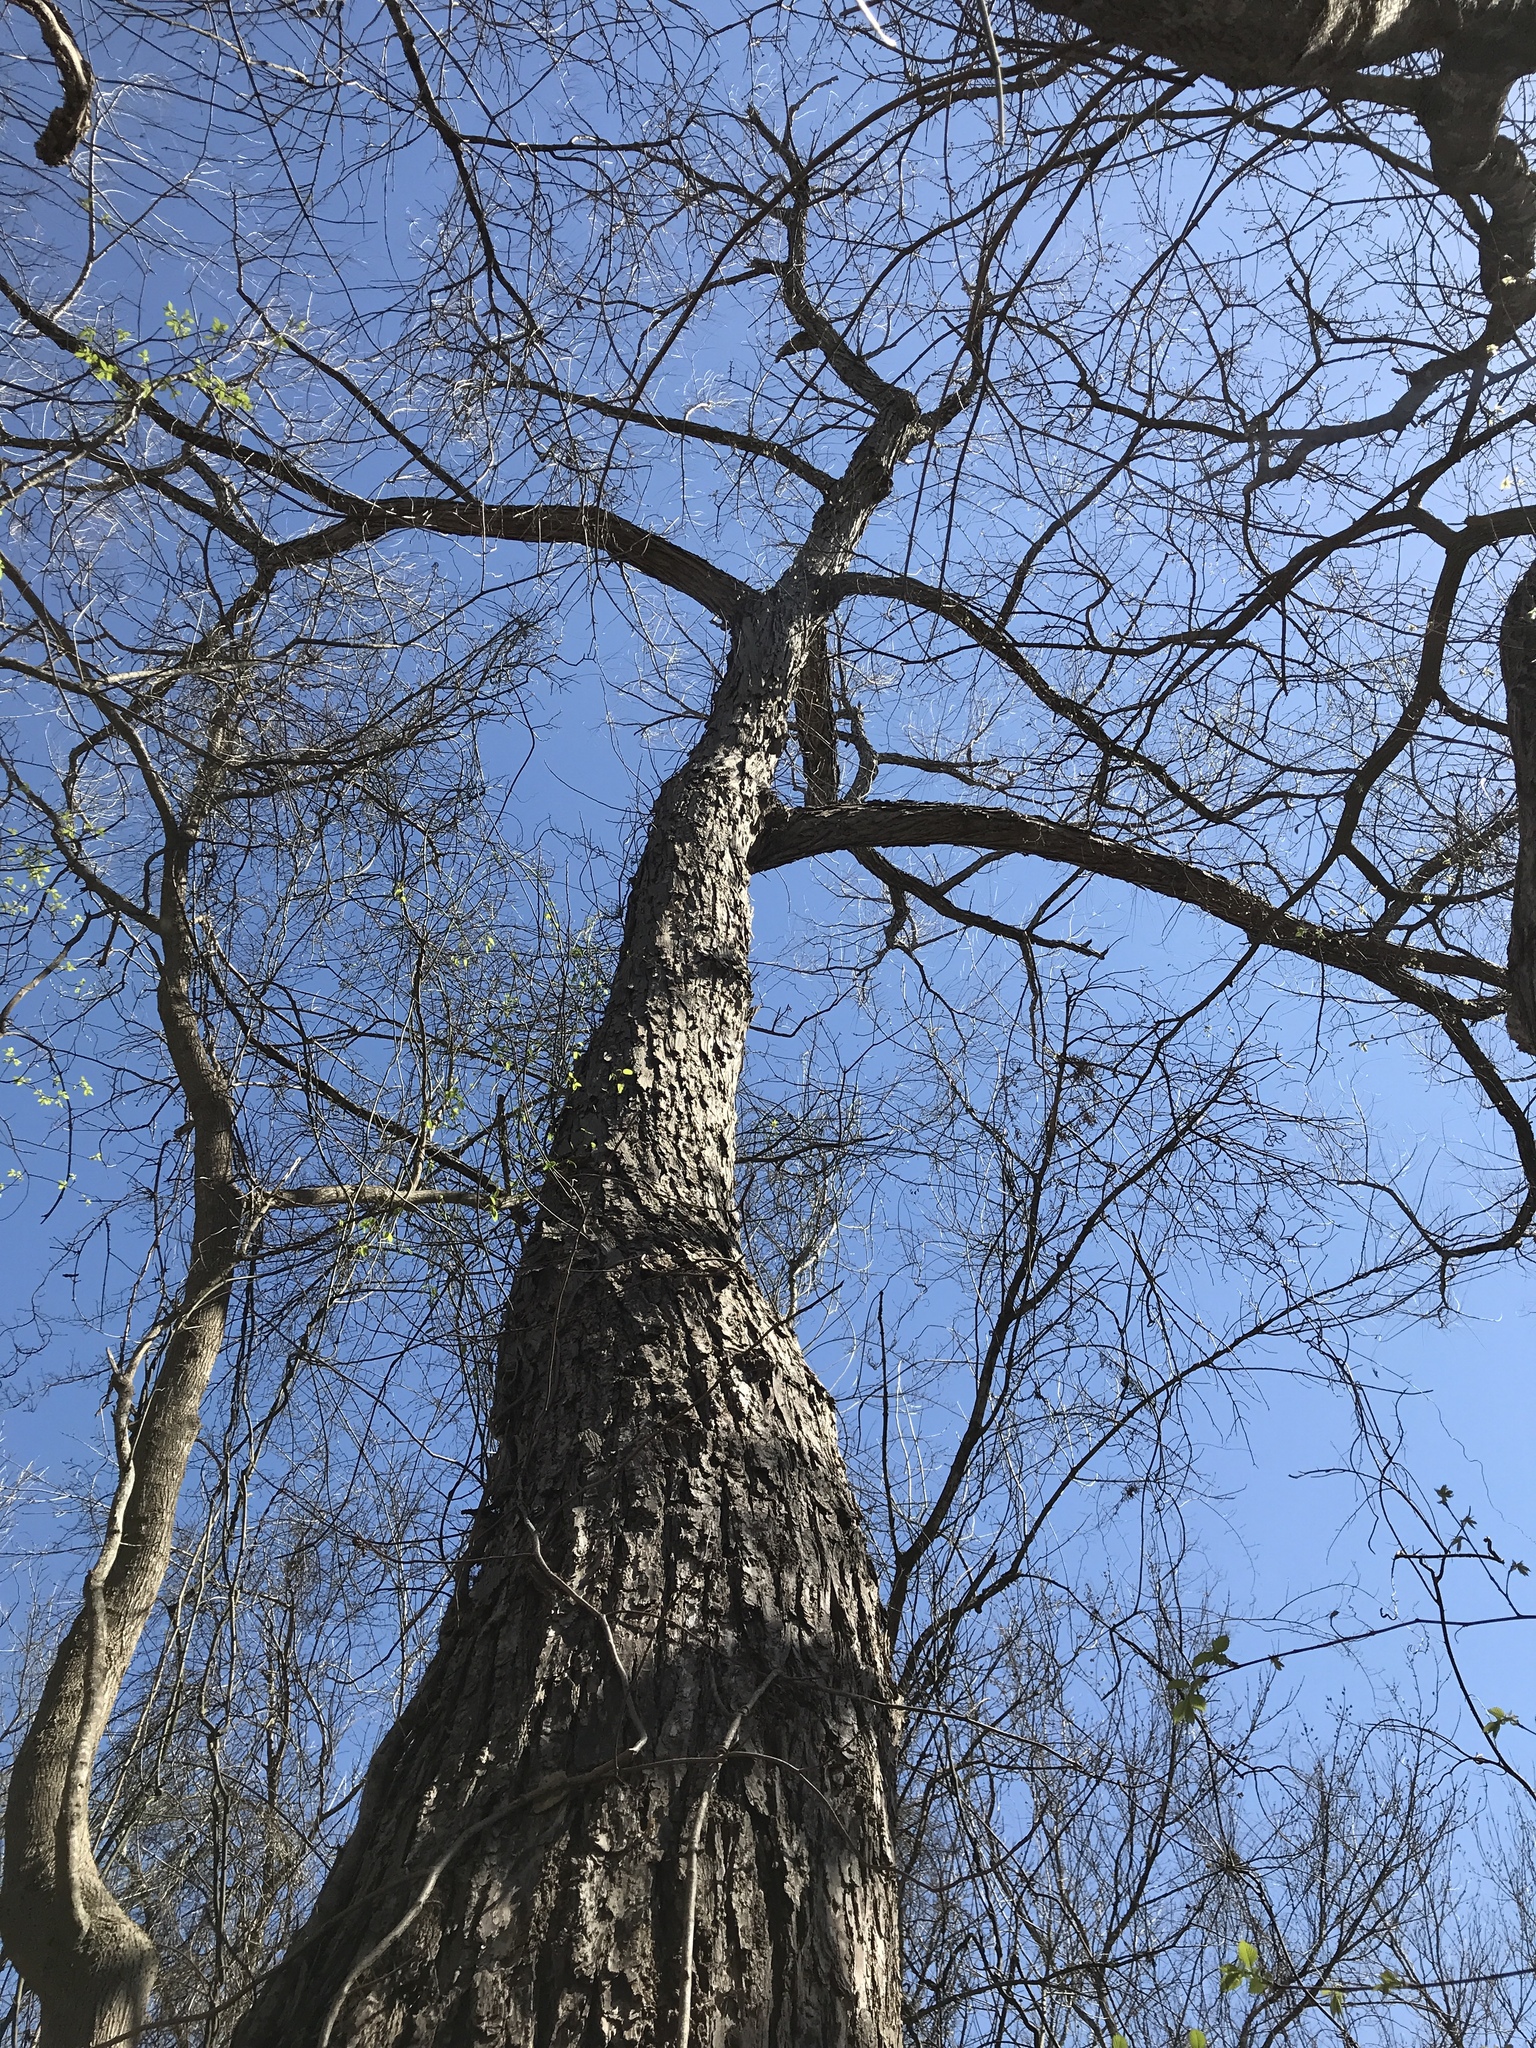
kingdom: Plantae
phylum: Tracheophyta
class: Magnoliopsida
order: Malpighiales
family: Salicaceae
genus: Salix
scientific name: Salix nigra
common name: Black willow
